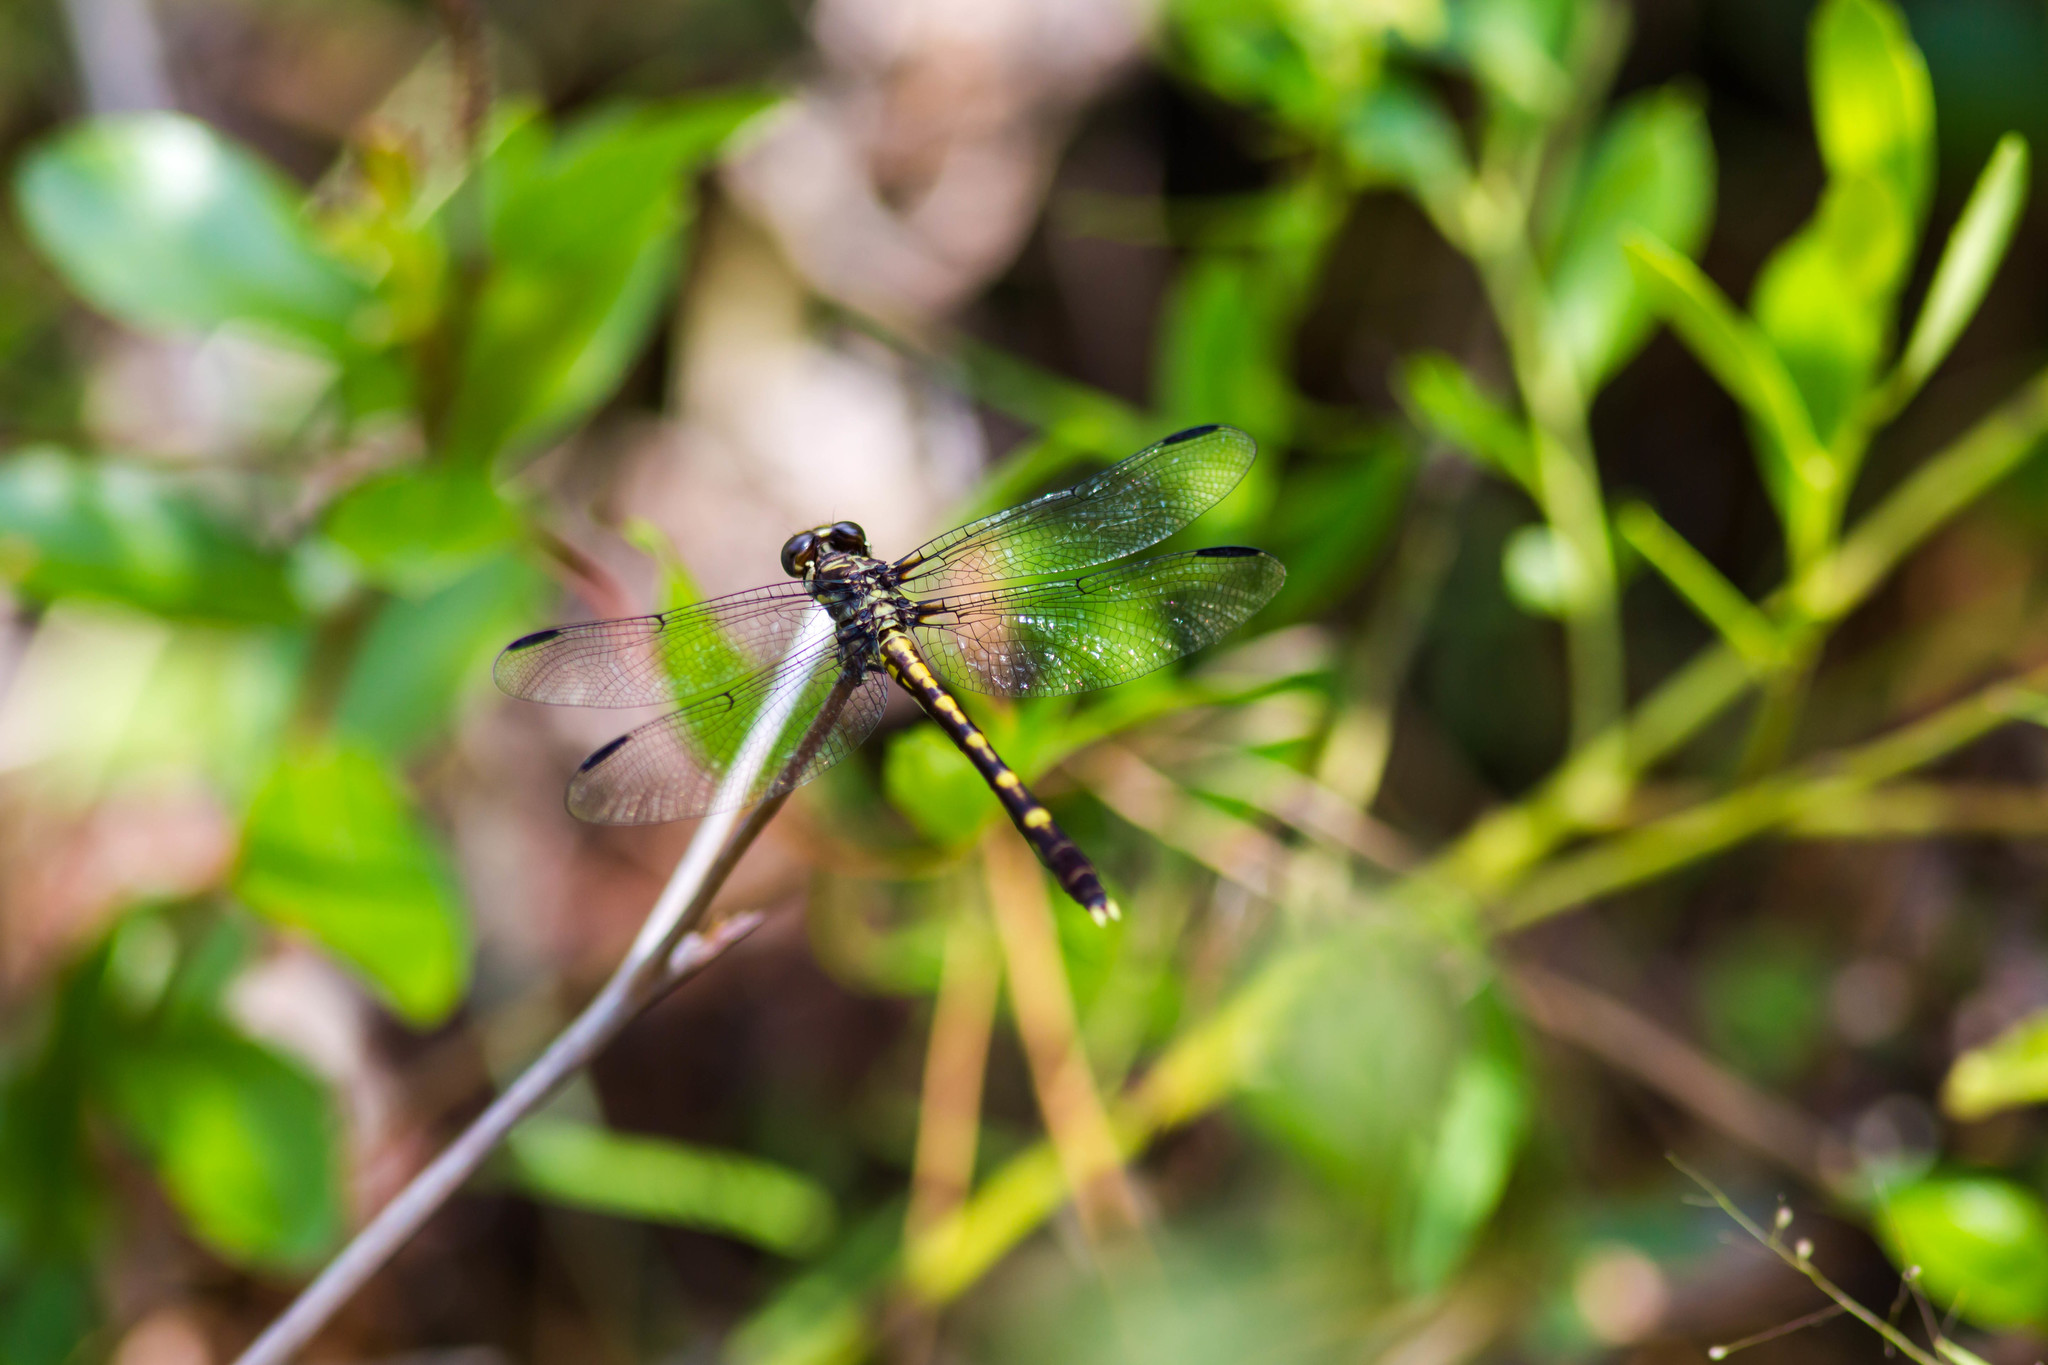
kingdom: Animalia
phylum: Arthropoda
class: Insecta
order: Odonata
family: Gomphidae
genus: Progomphus
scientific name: Progomphus obscurus
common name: Common sanddragon
